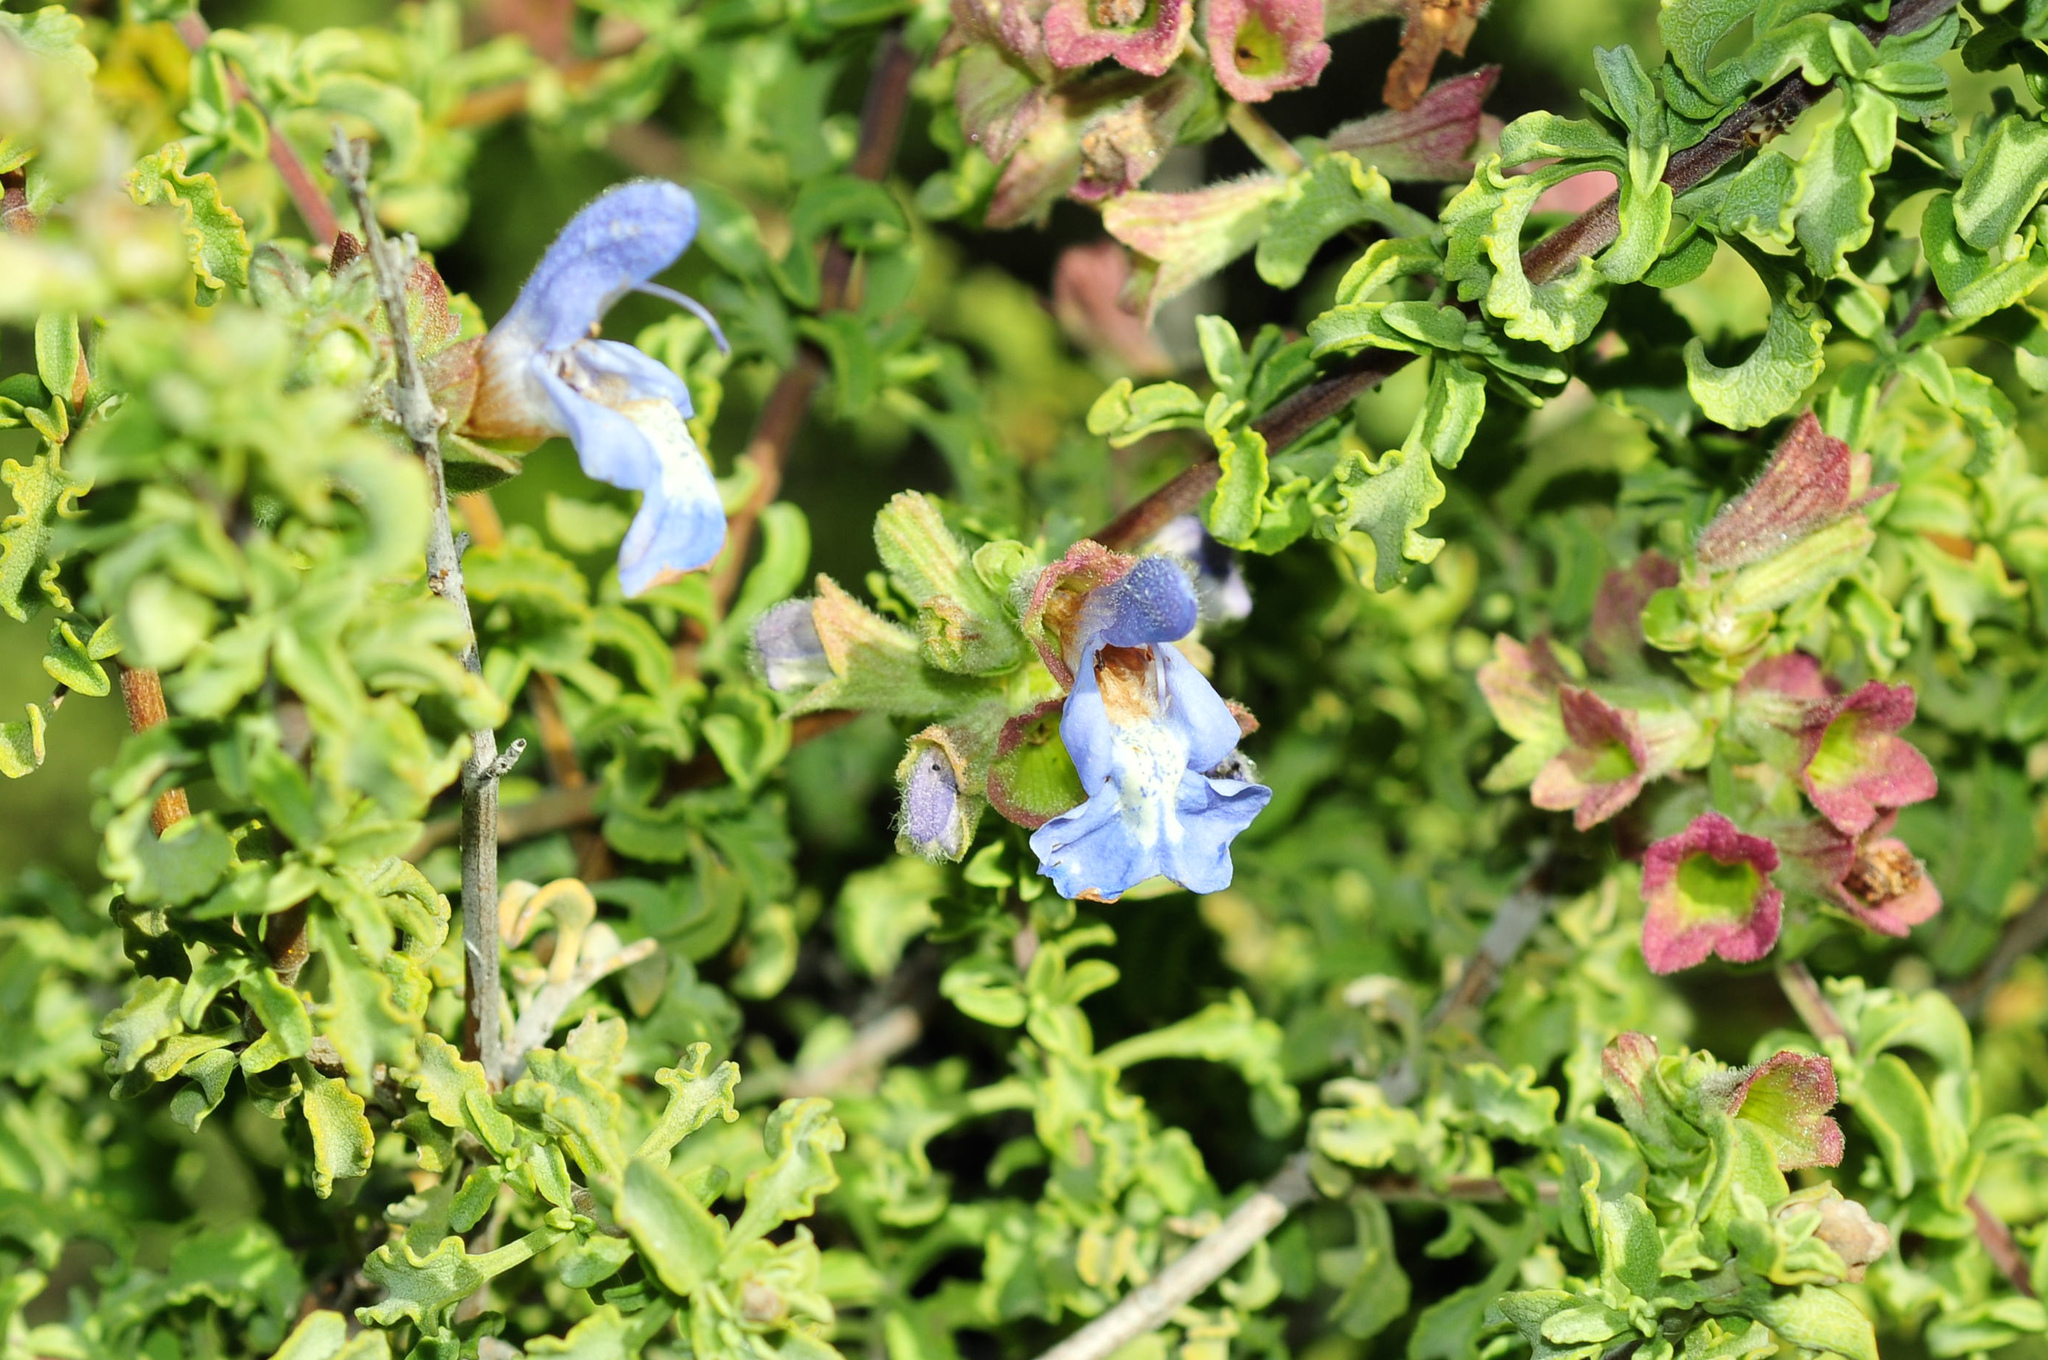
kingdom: Plantae
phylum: Tracheophyta
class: Magnoliopsida
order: Lamiales
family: Lamiaceae
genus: Salvia
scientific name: Salvia dentata
